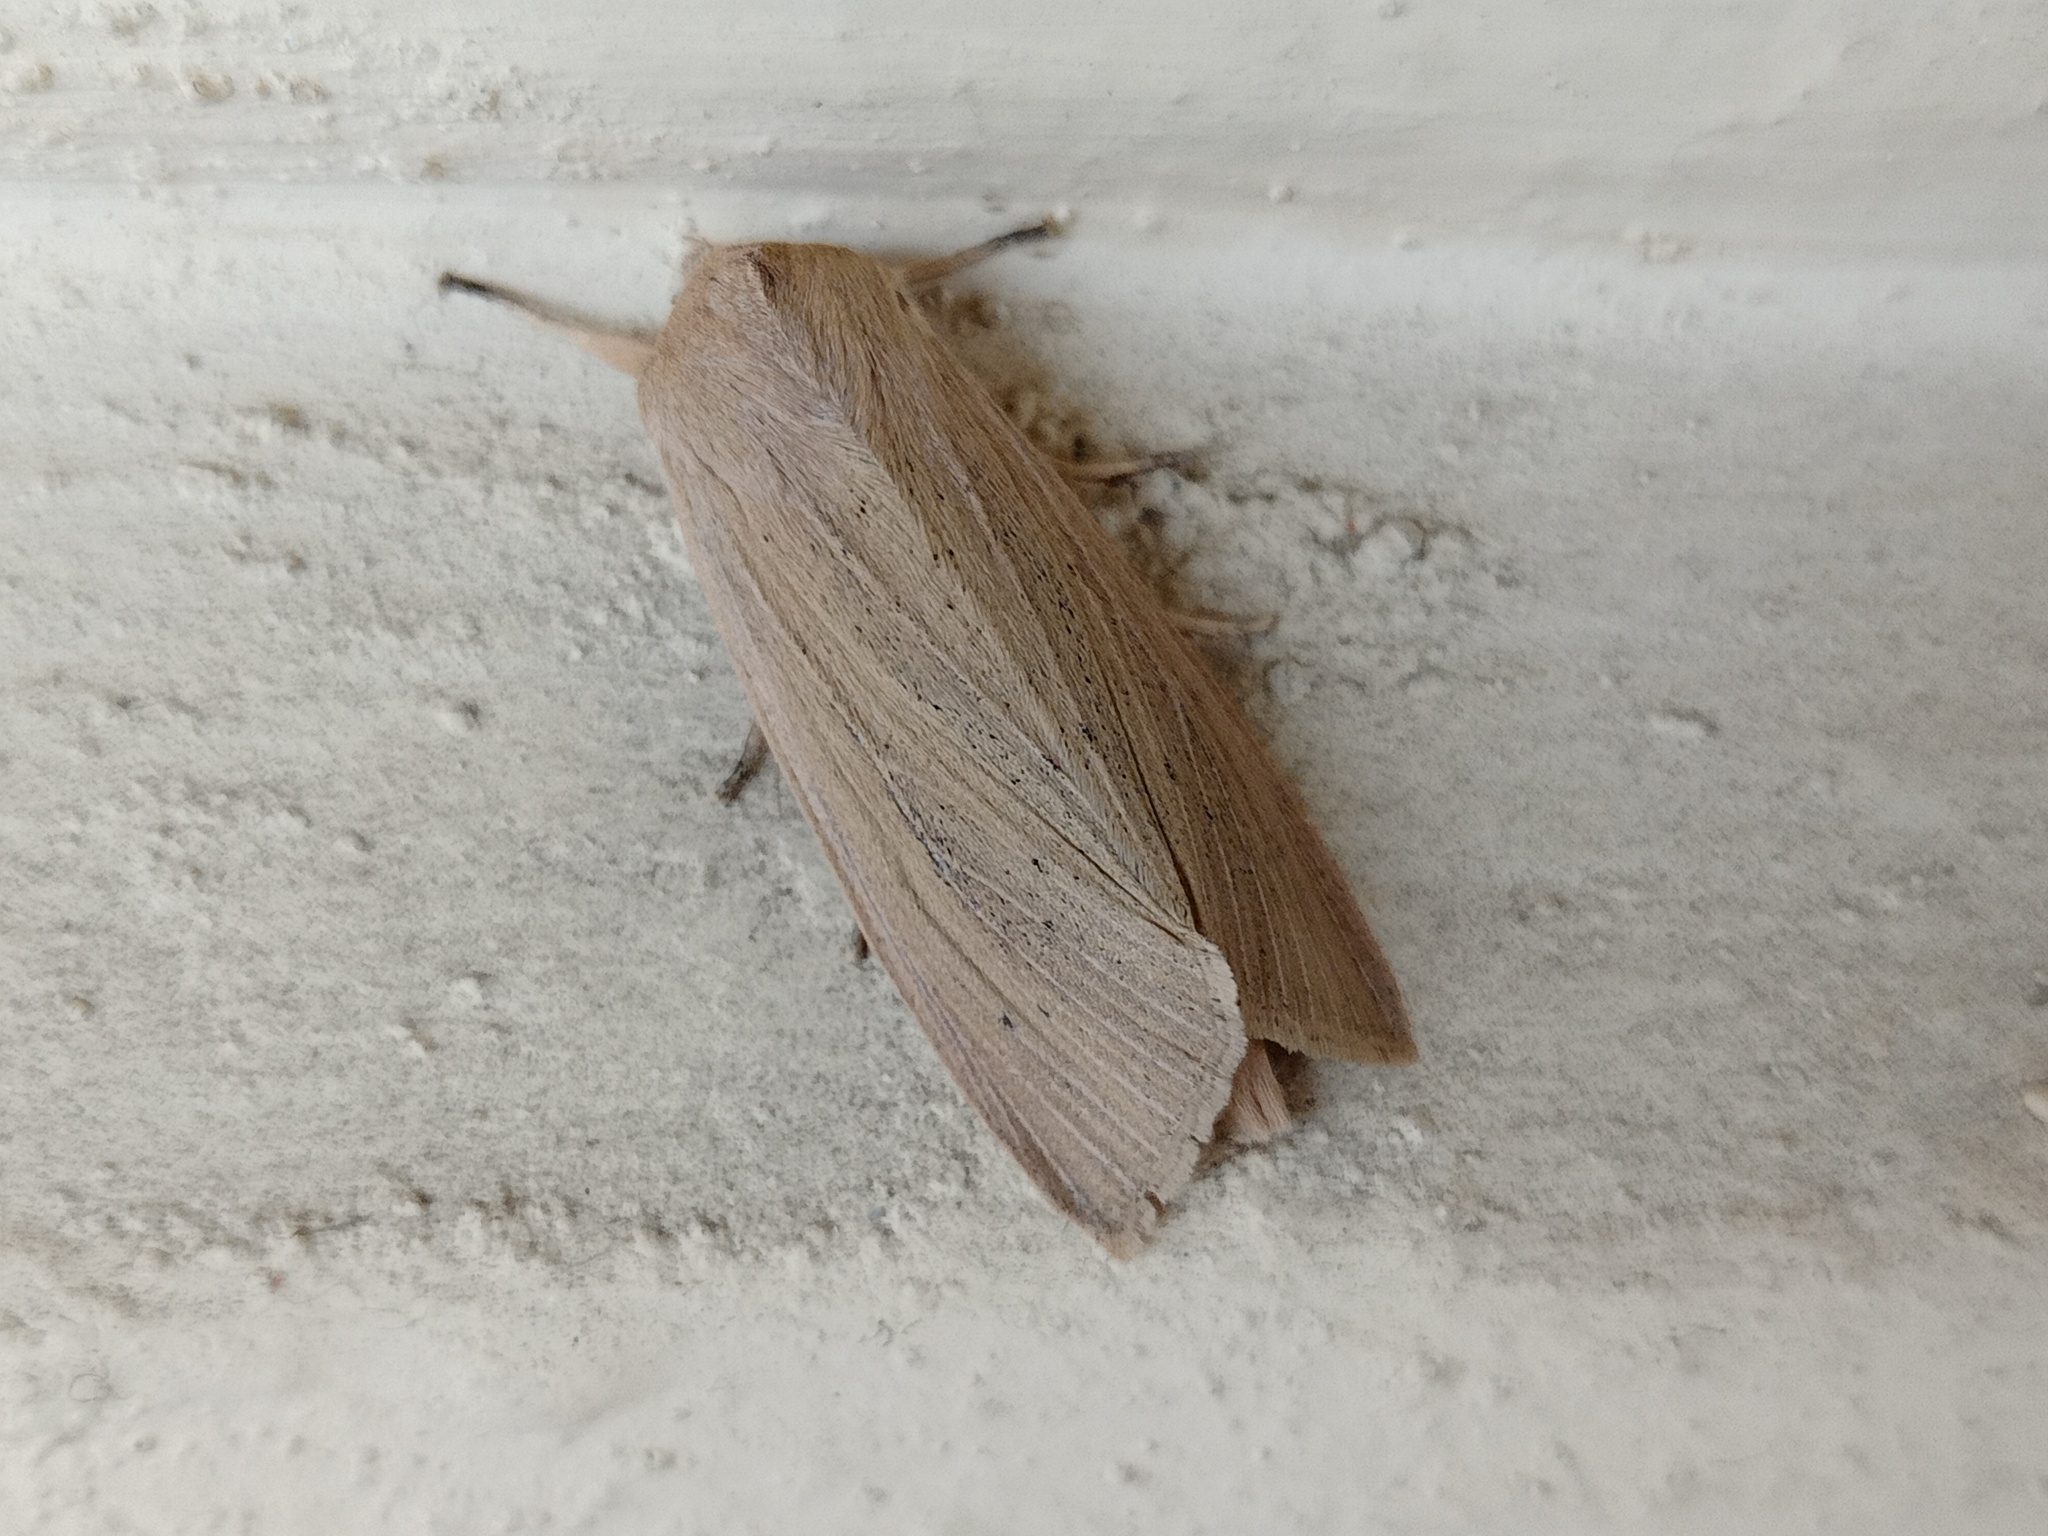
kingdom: Animalia
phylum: Arthropoda
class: Insecta
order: Lepidoptera
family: Noctuidae
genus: Rhizedra
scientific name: Rhizedra lutosa
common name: Large wainscot
